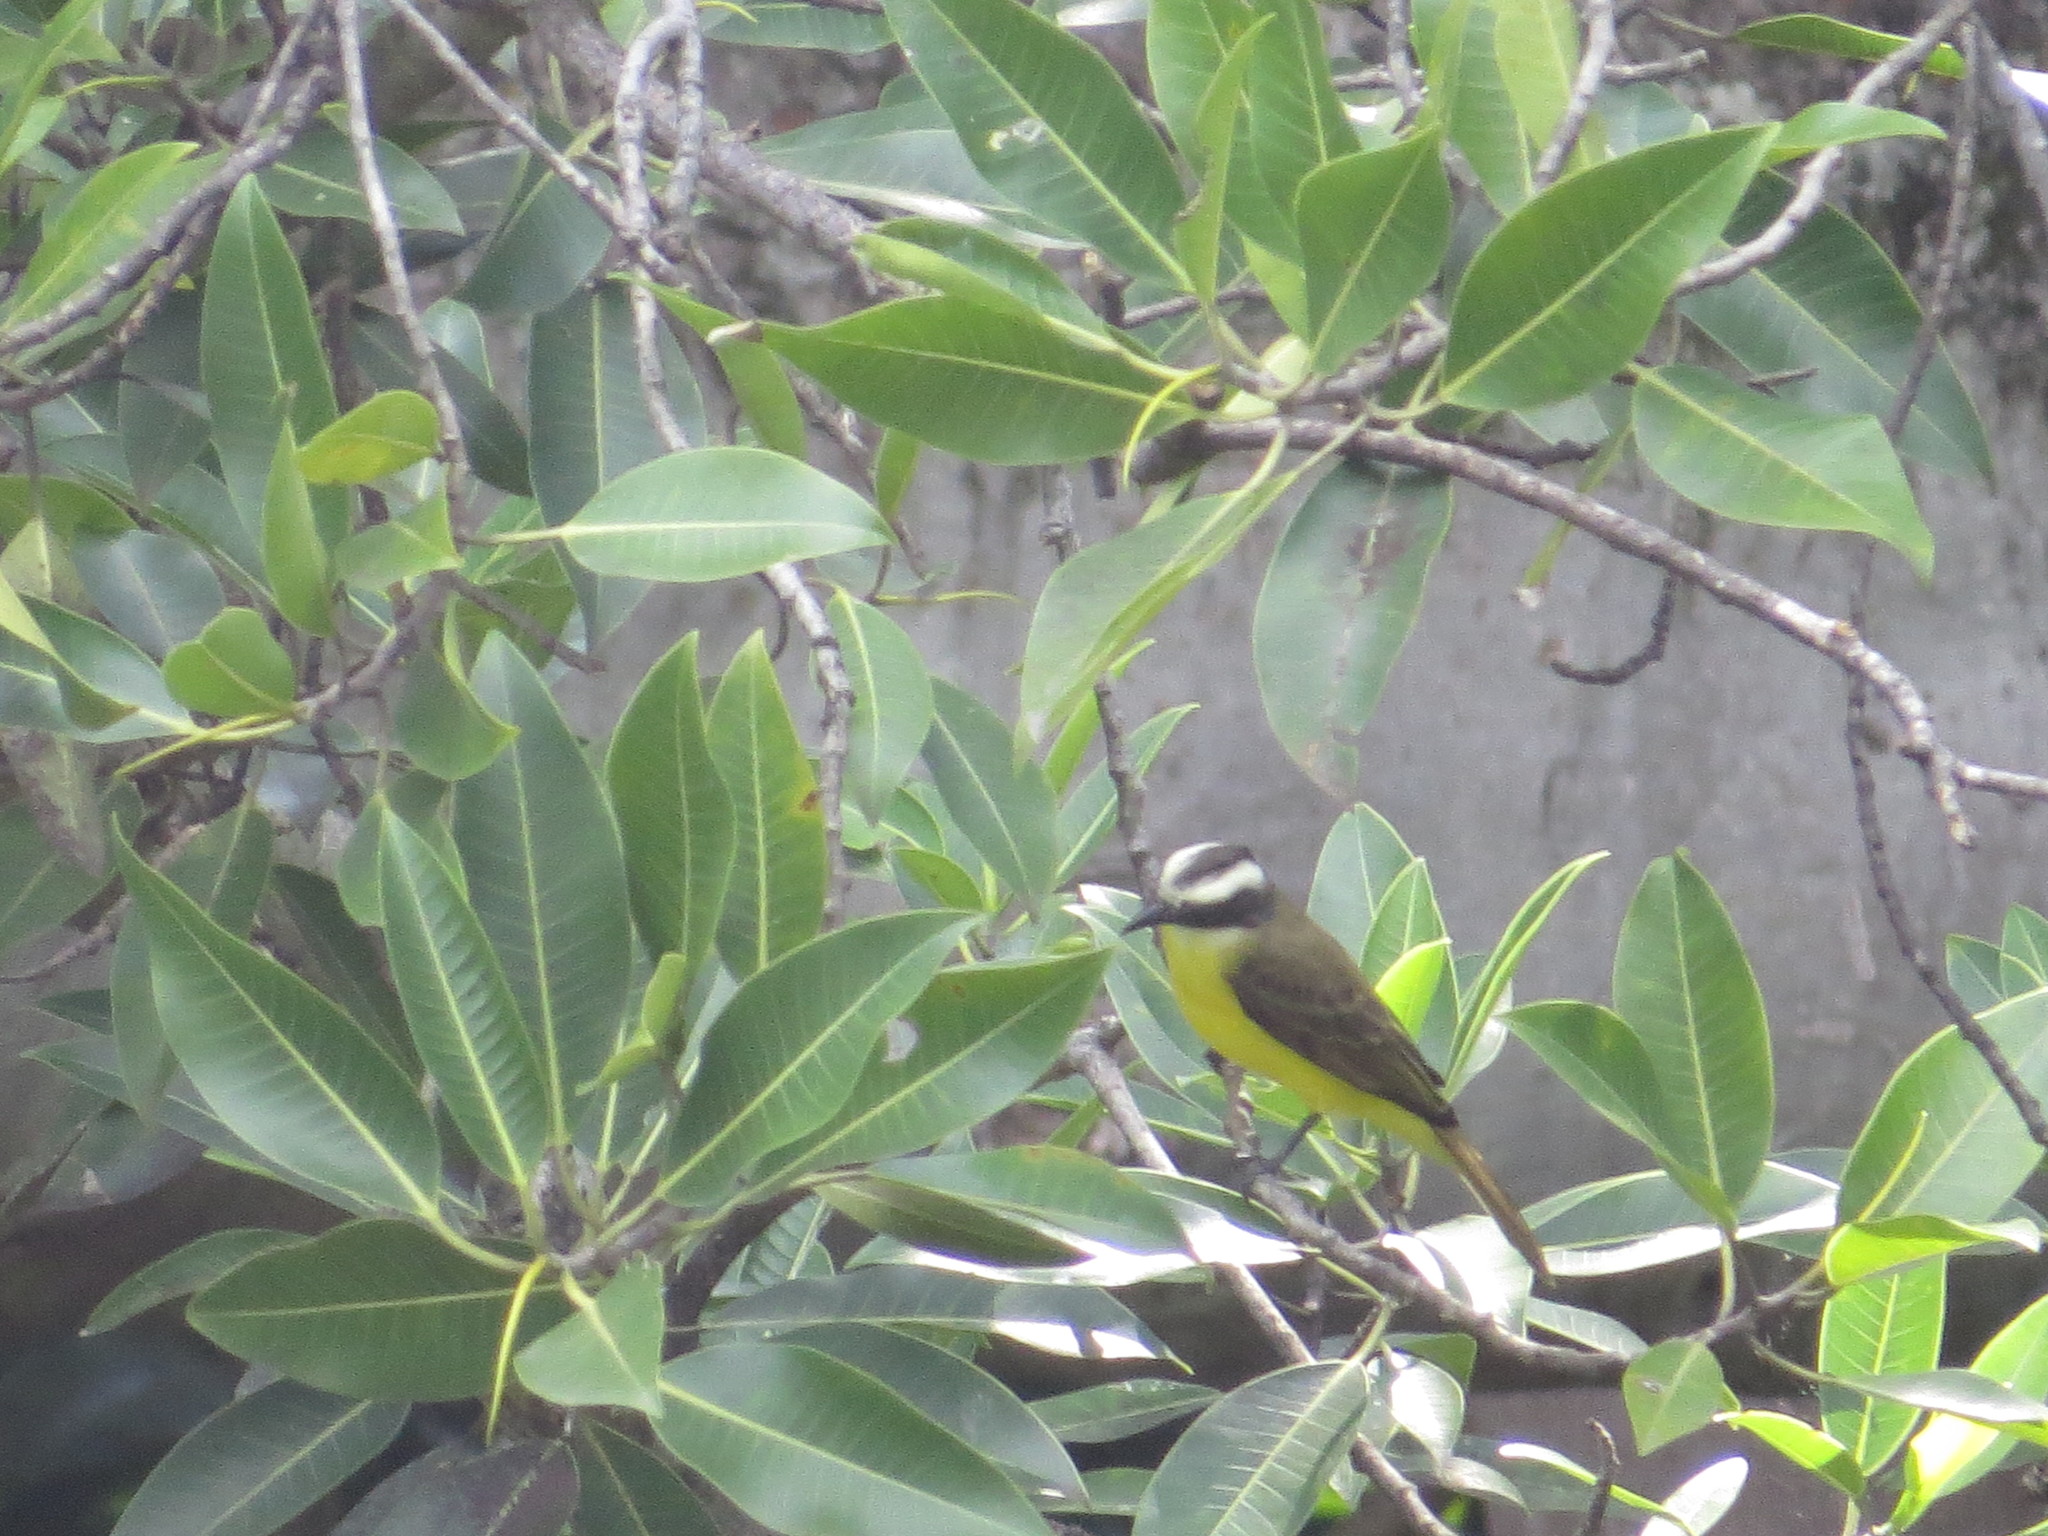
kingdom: Animalia
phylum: Chordata
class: Aves
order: Passeriformes
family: Tyrannidae
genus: Myiozetetes
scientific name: Myiozetetes similis
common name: Social flycatcher
